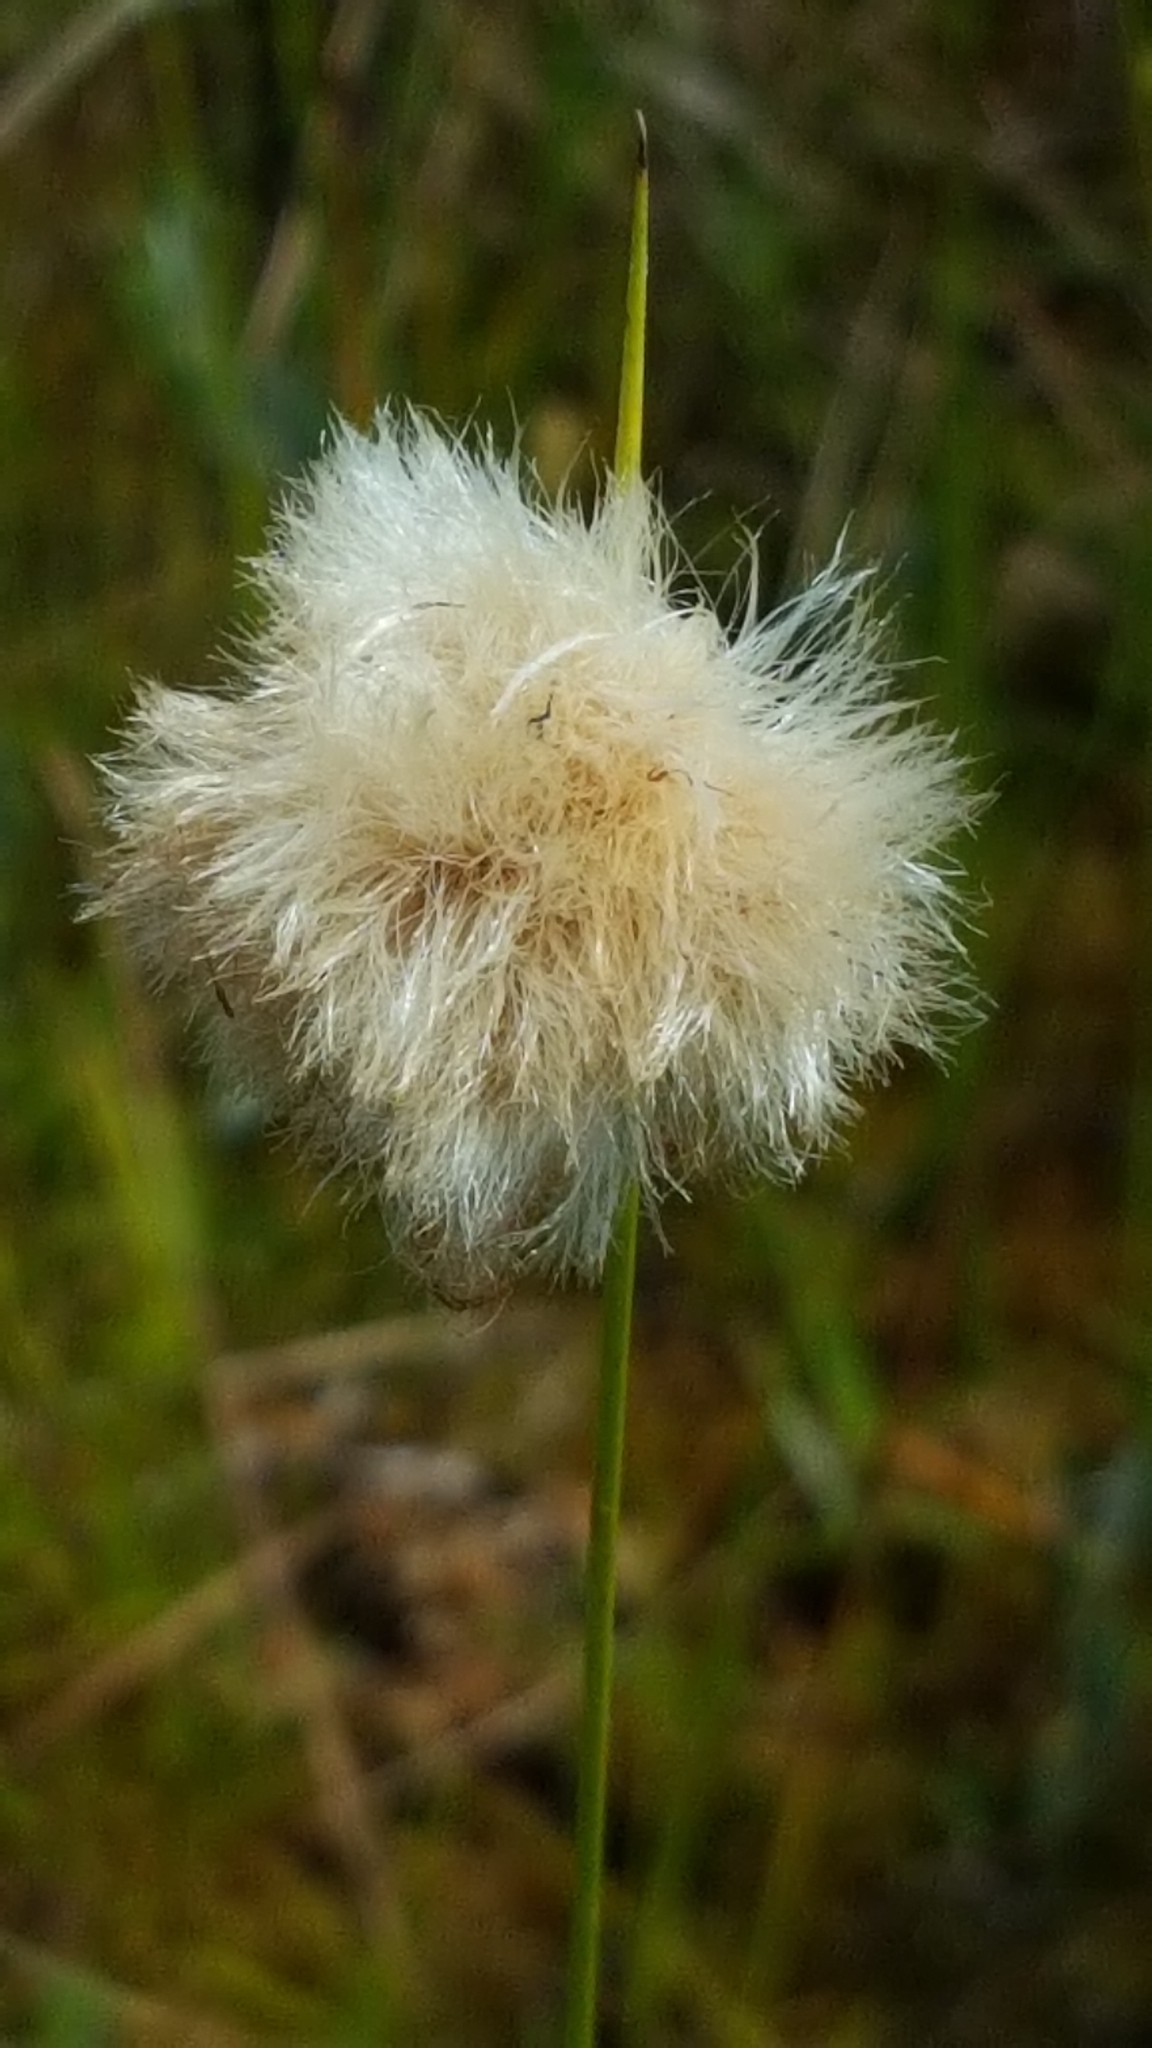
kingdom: Plantae
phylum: Tracheophyta
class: Liliopsida
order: Poales
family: Cyperaceae
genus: Eriophorum
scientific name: Eriophorum virginicum
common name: Tawny cottongrass
